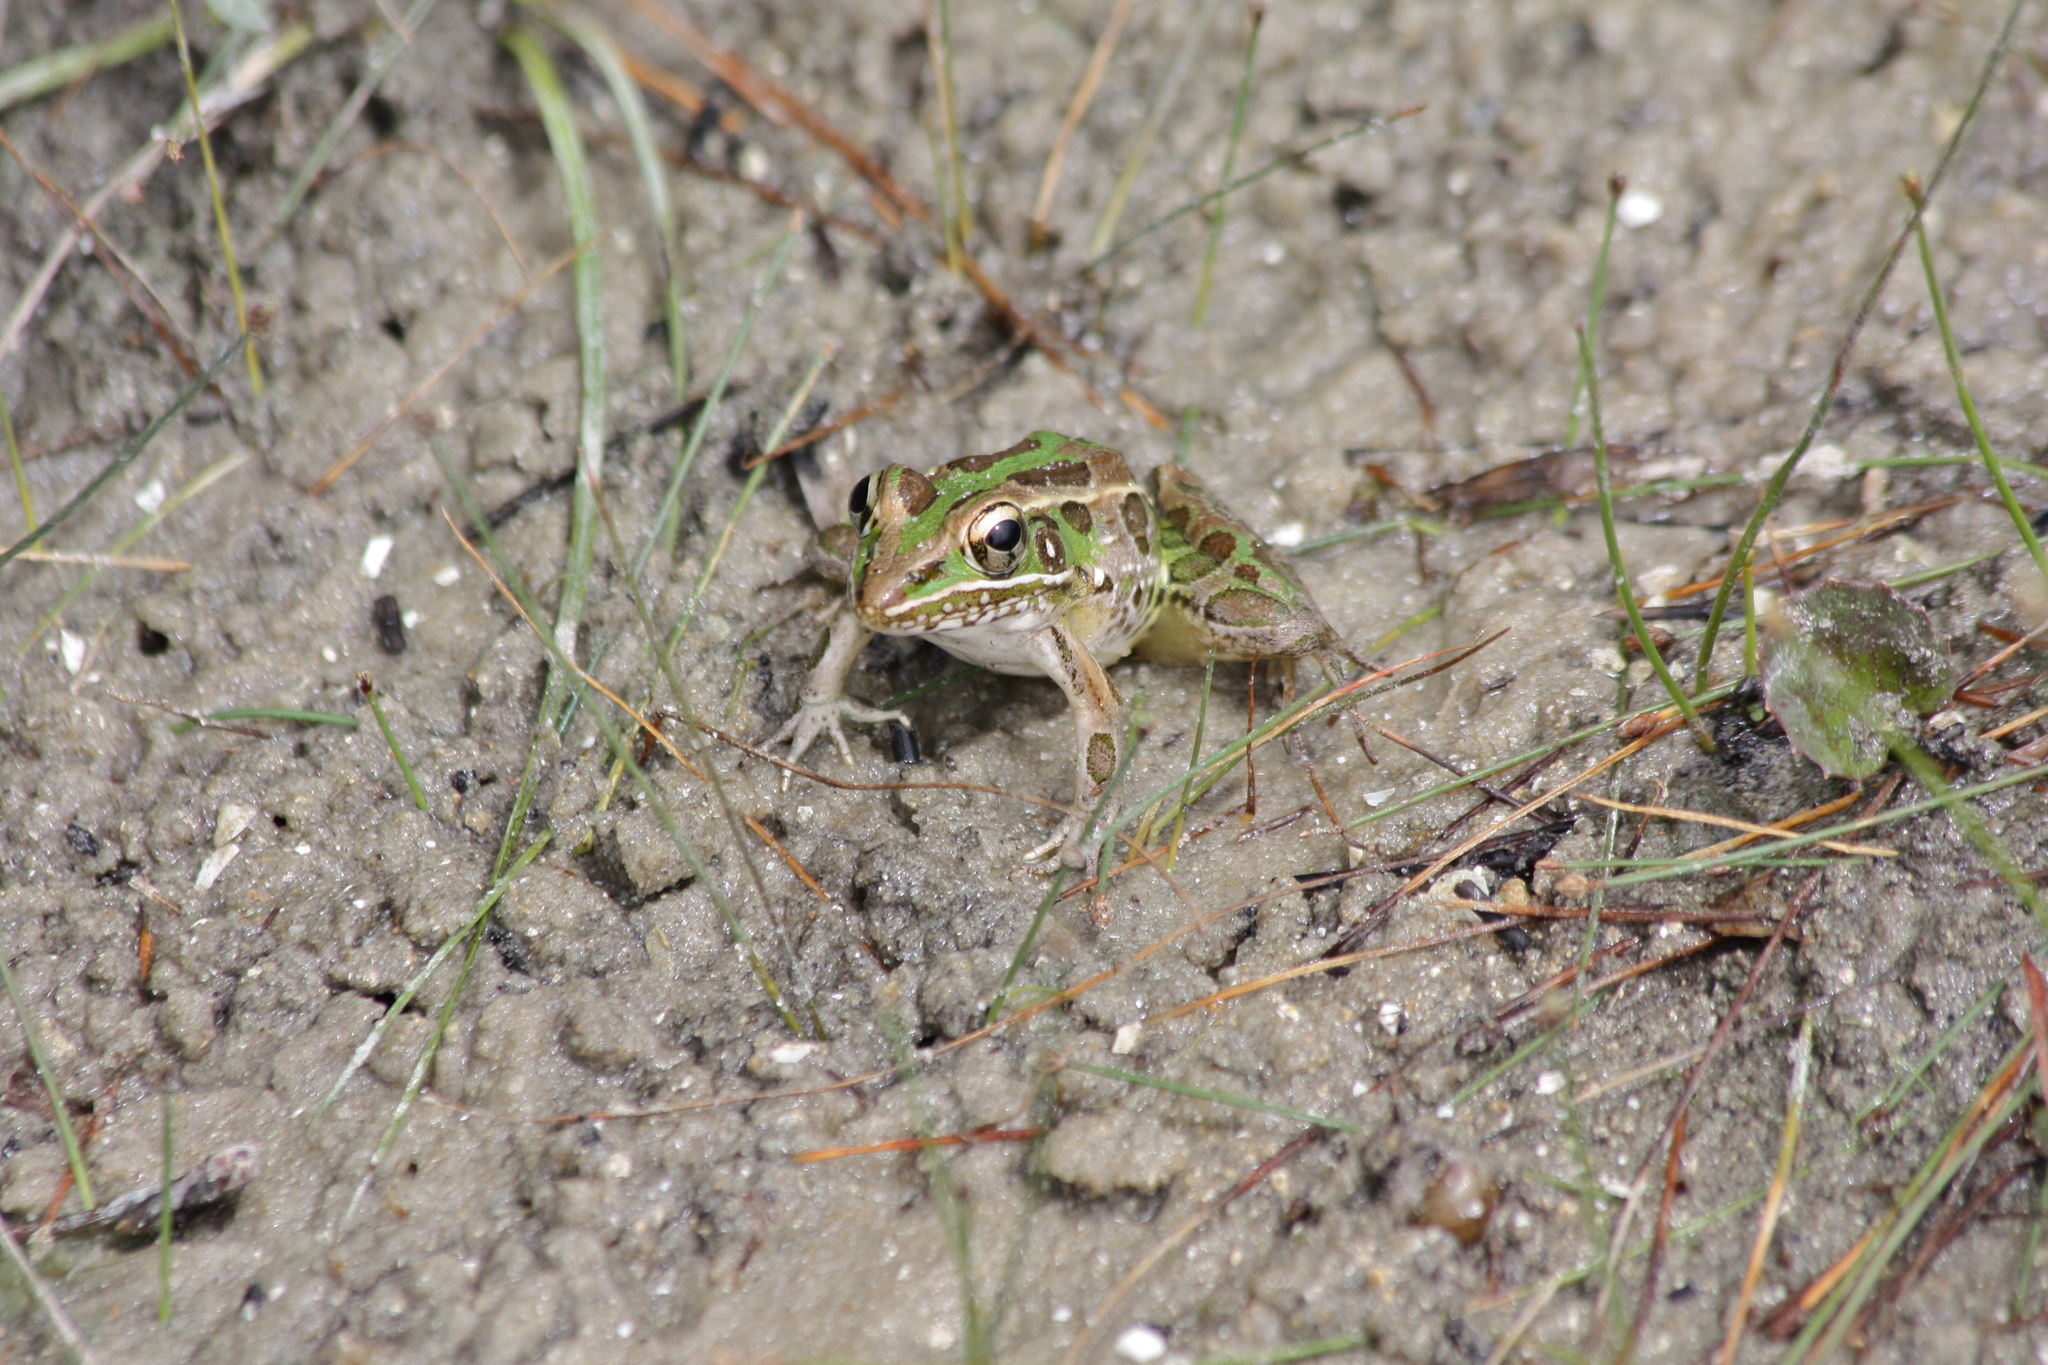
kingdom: Animalia
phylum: Chordata
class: Amphibia
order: Anura
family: Ranidae
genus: Lithobates
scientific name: Lithobates sphenocephalus
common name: Southern leopard frog
